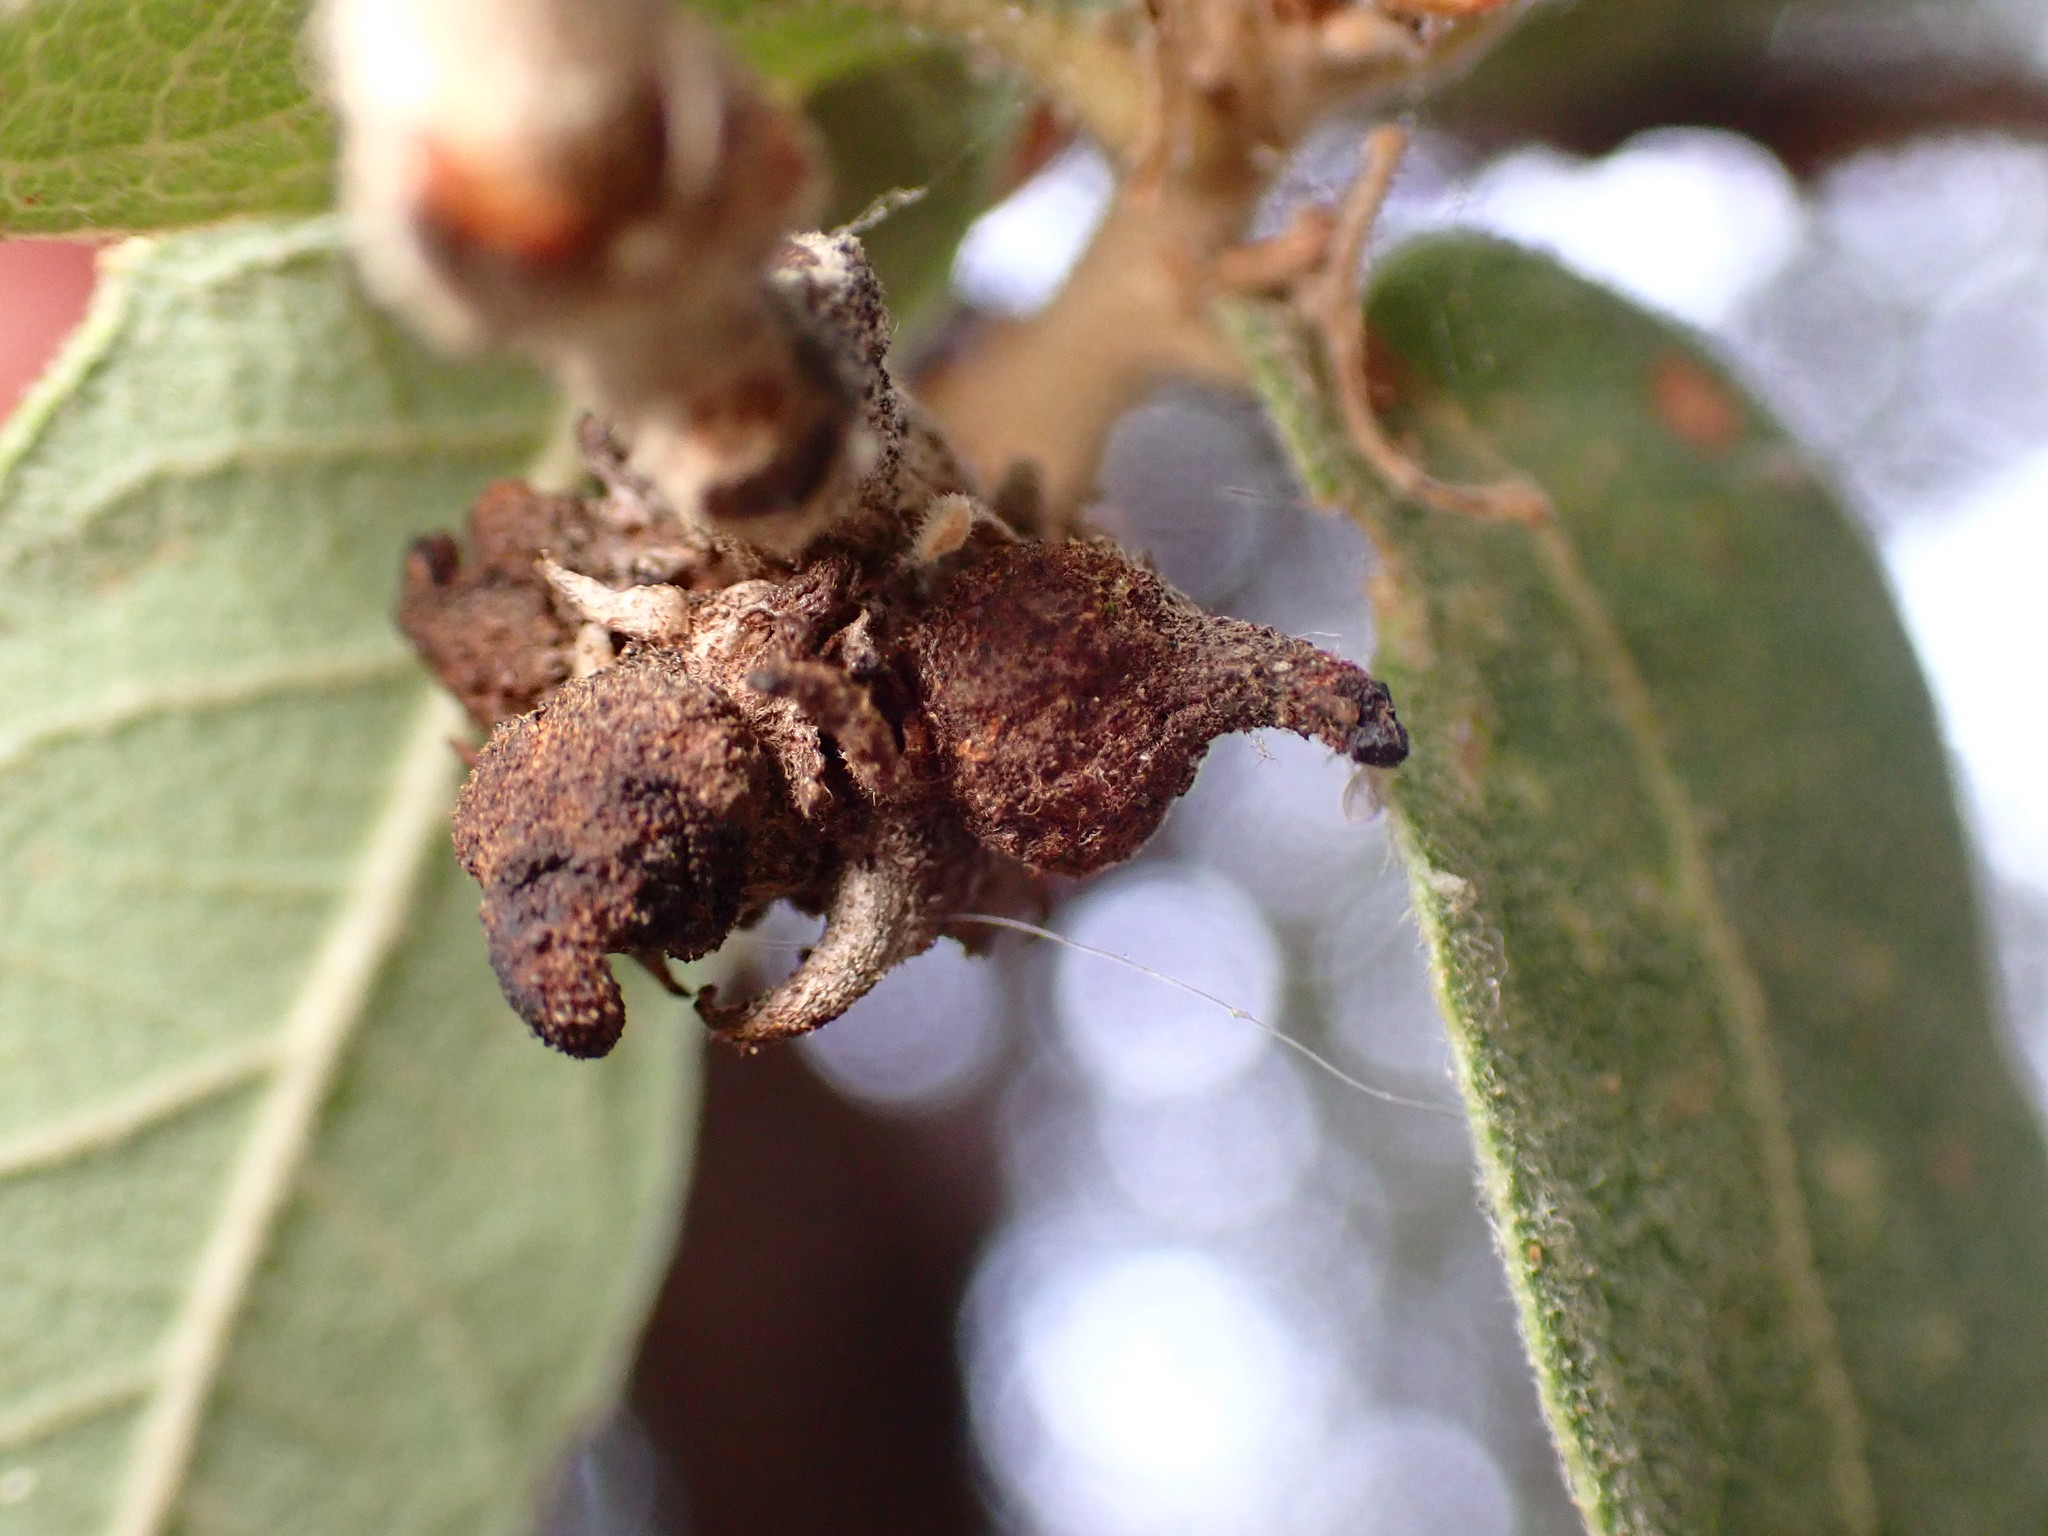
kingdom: Animalia
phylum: Arthropoda
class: Insecta
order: Hymenoptera
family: Cynipidae
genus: Disholcaspis
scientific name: Disholcaspis
